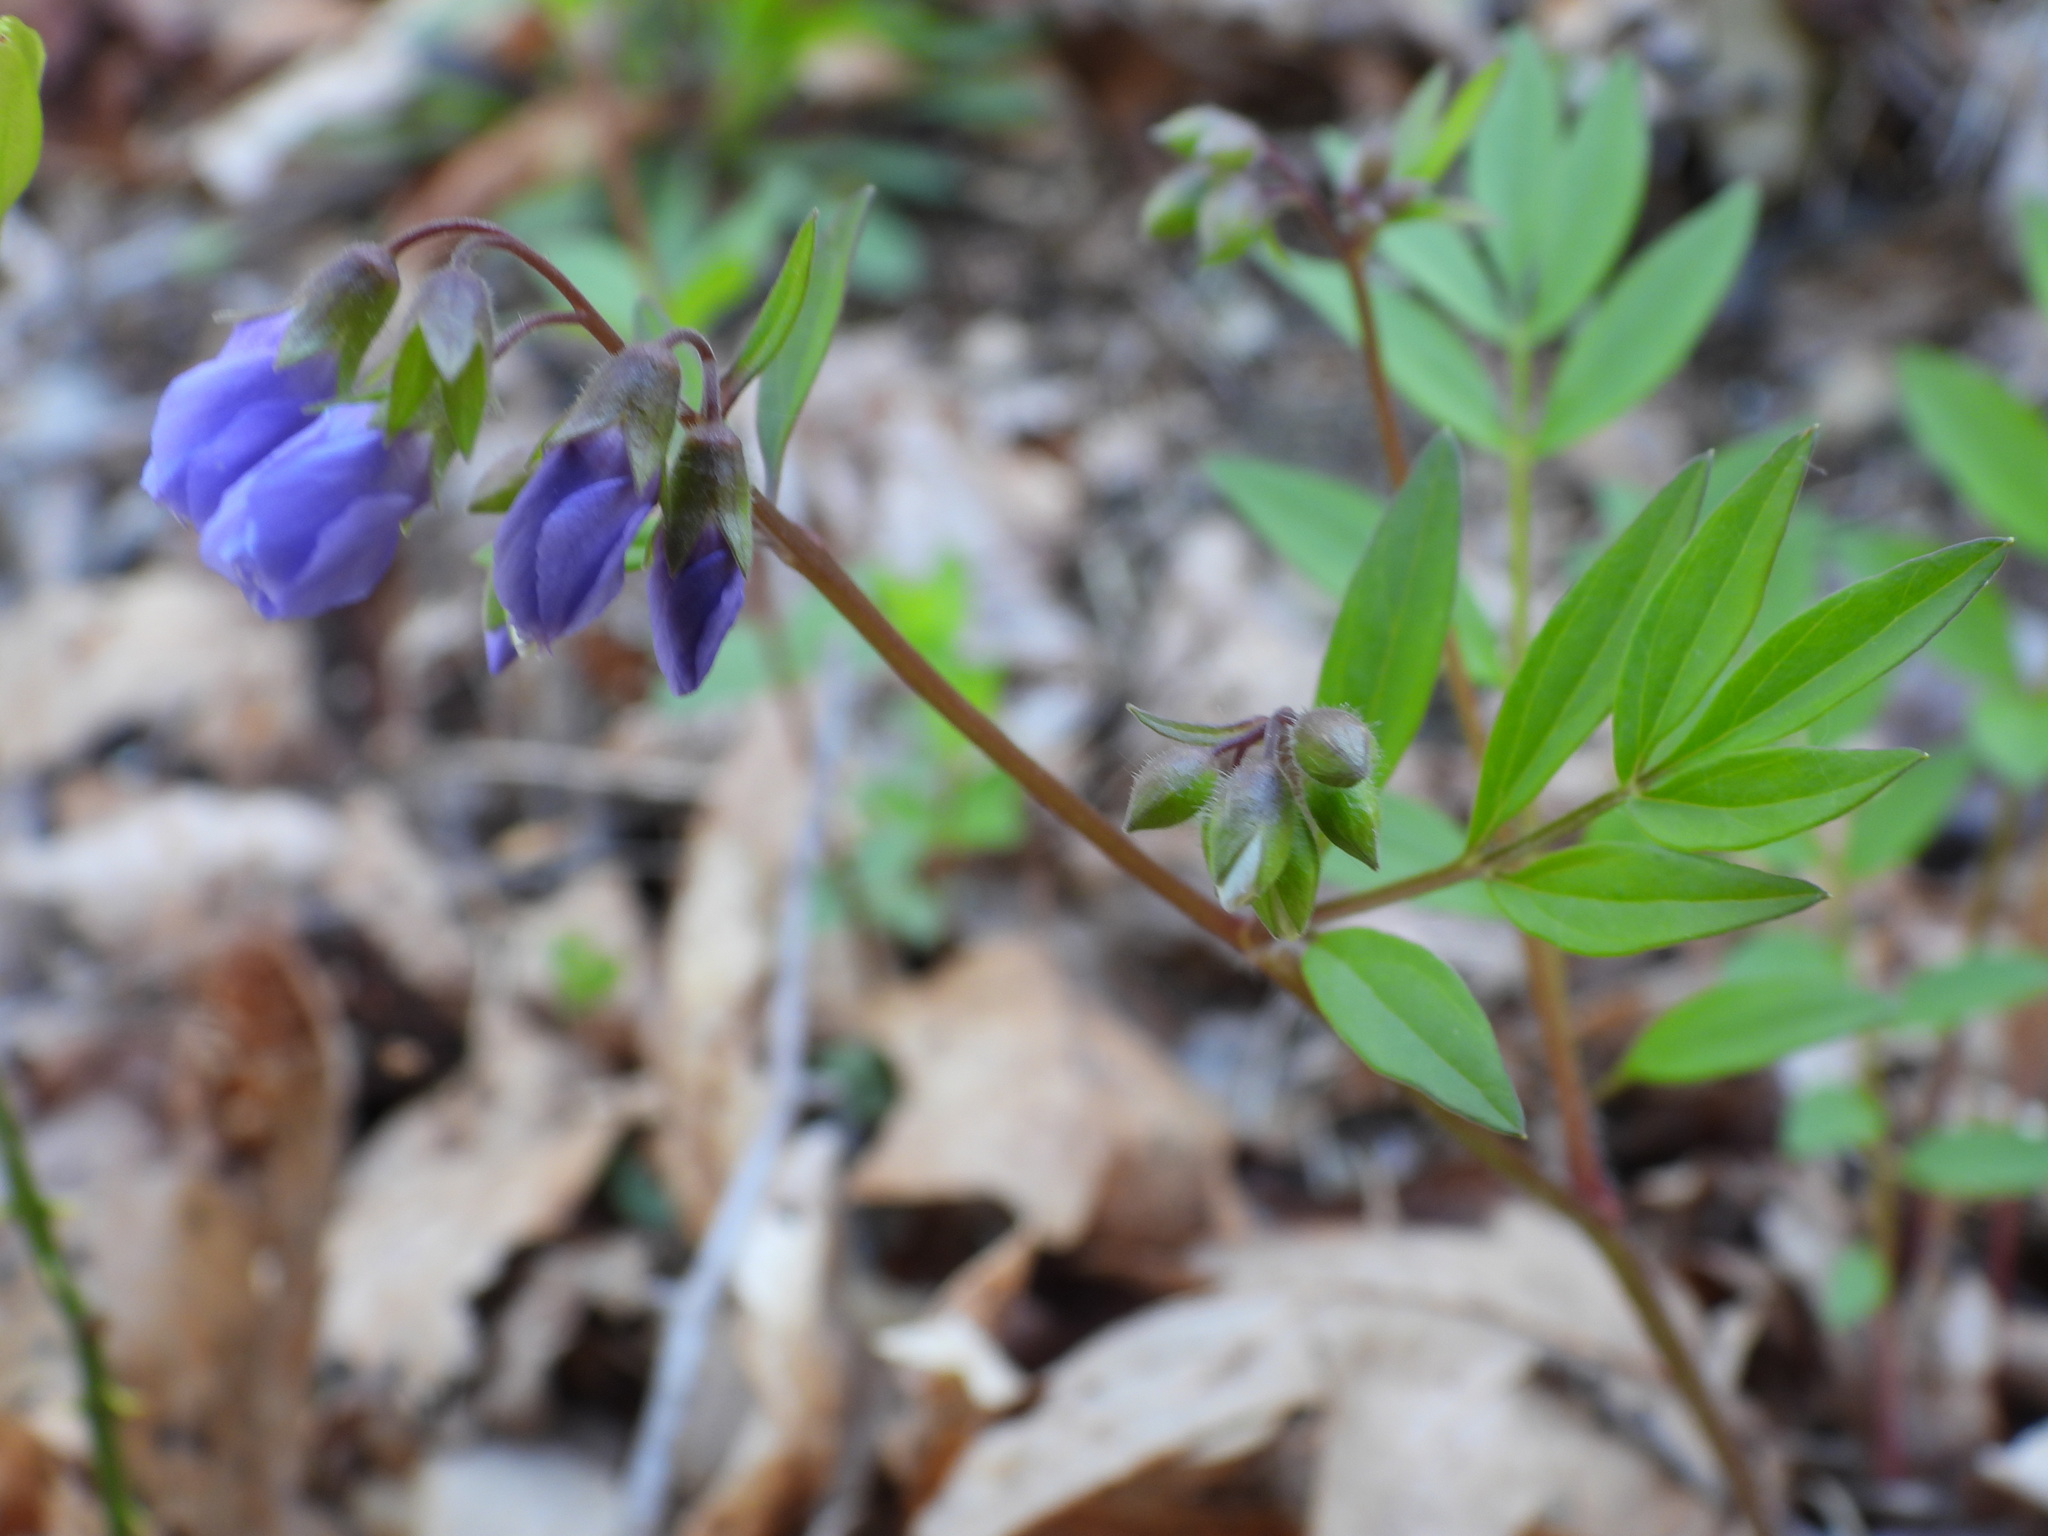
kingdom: Plantae
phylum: Tracheophyta
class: Magnoliopsida
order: Ericales
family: Polemoniaceae
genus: Polemonium
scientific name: Polemonium reptans
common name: Creeping jacob's-ladder
